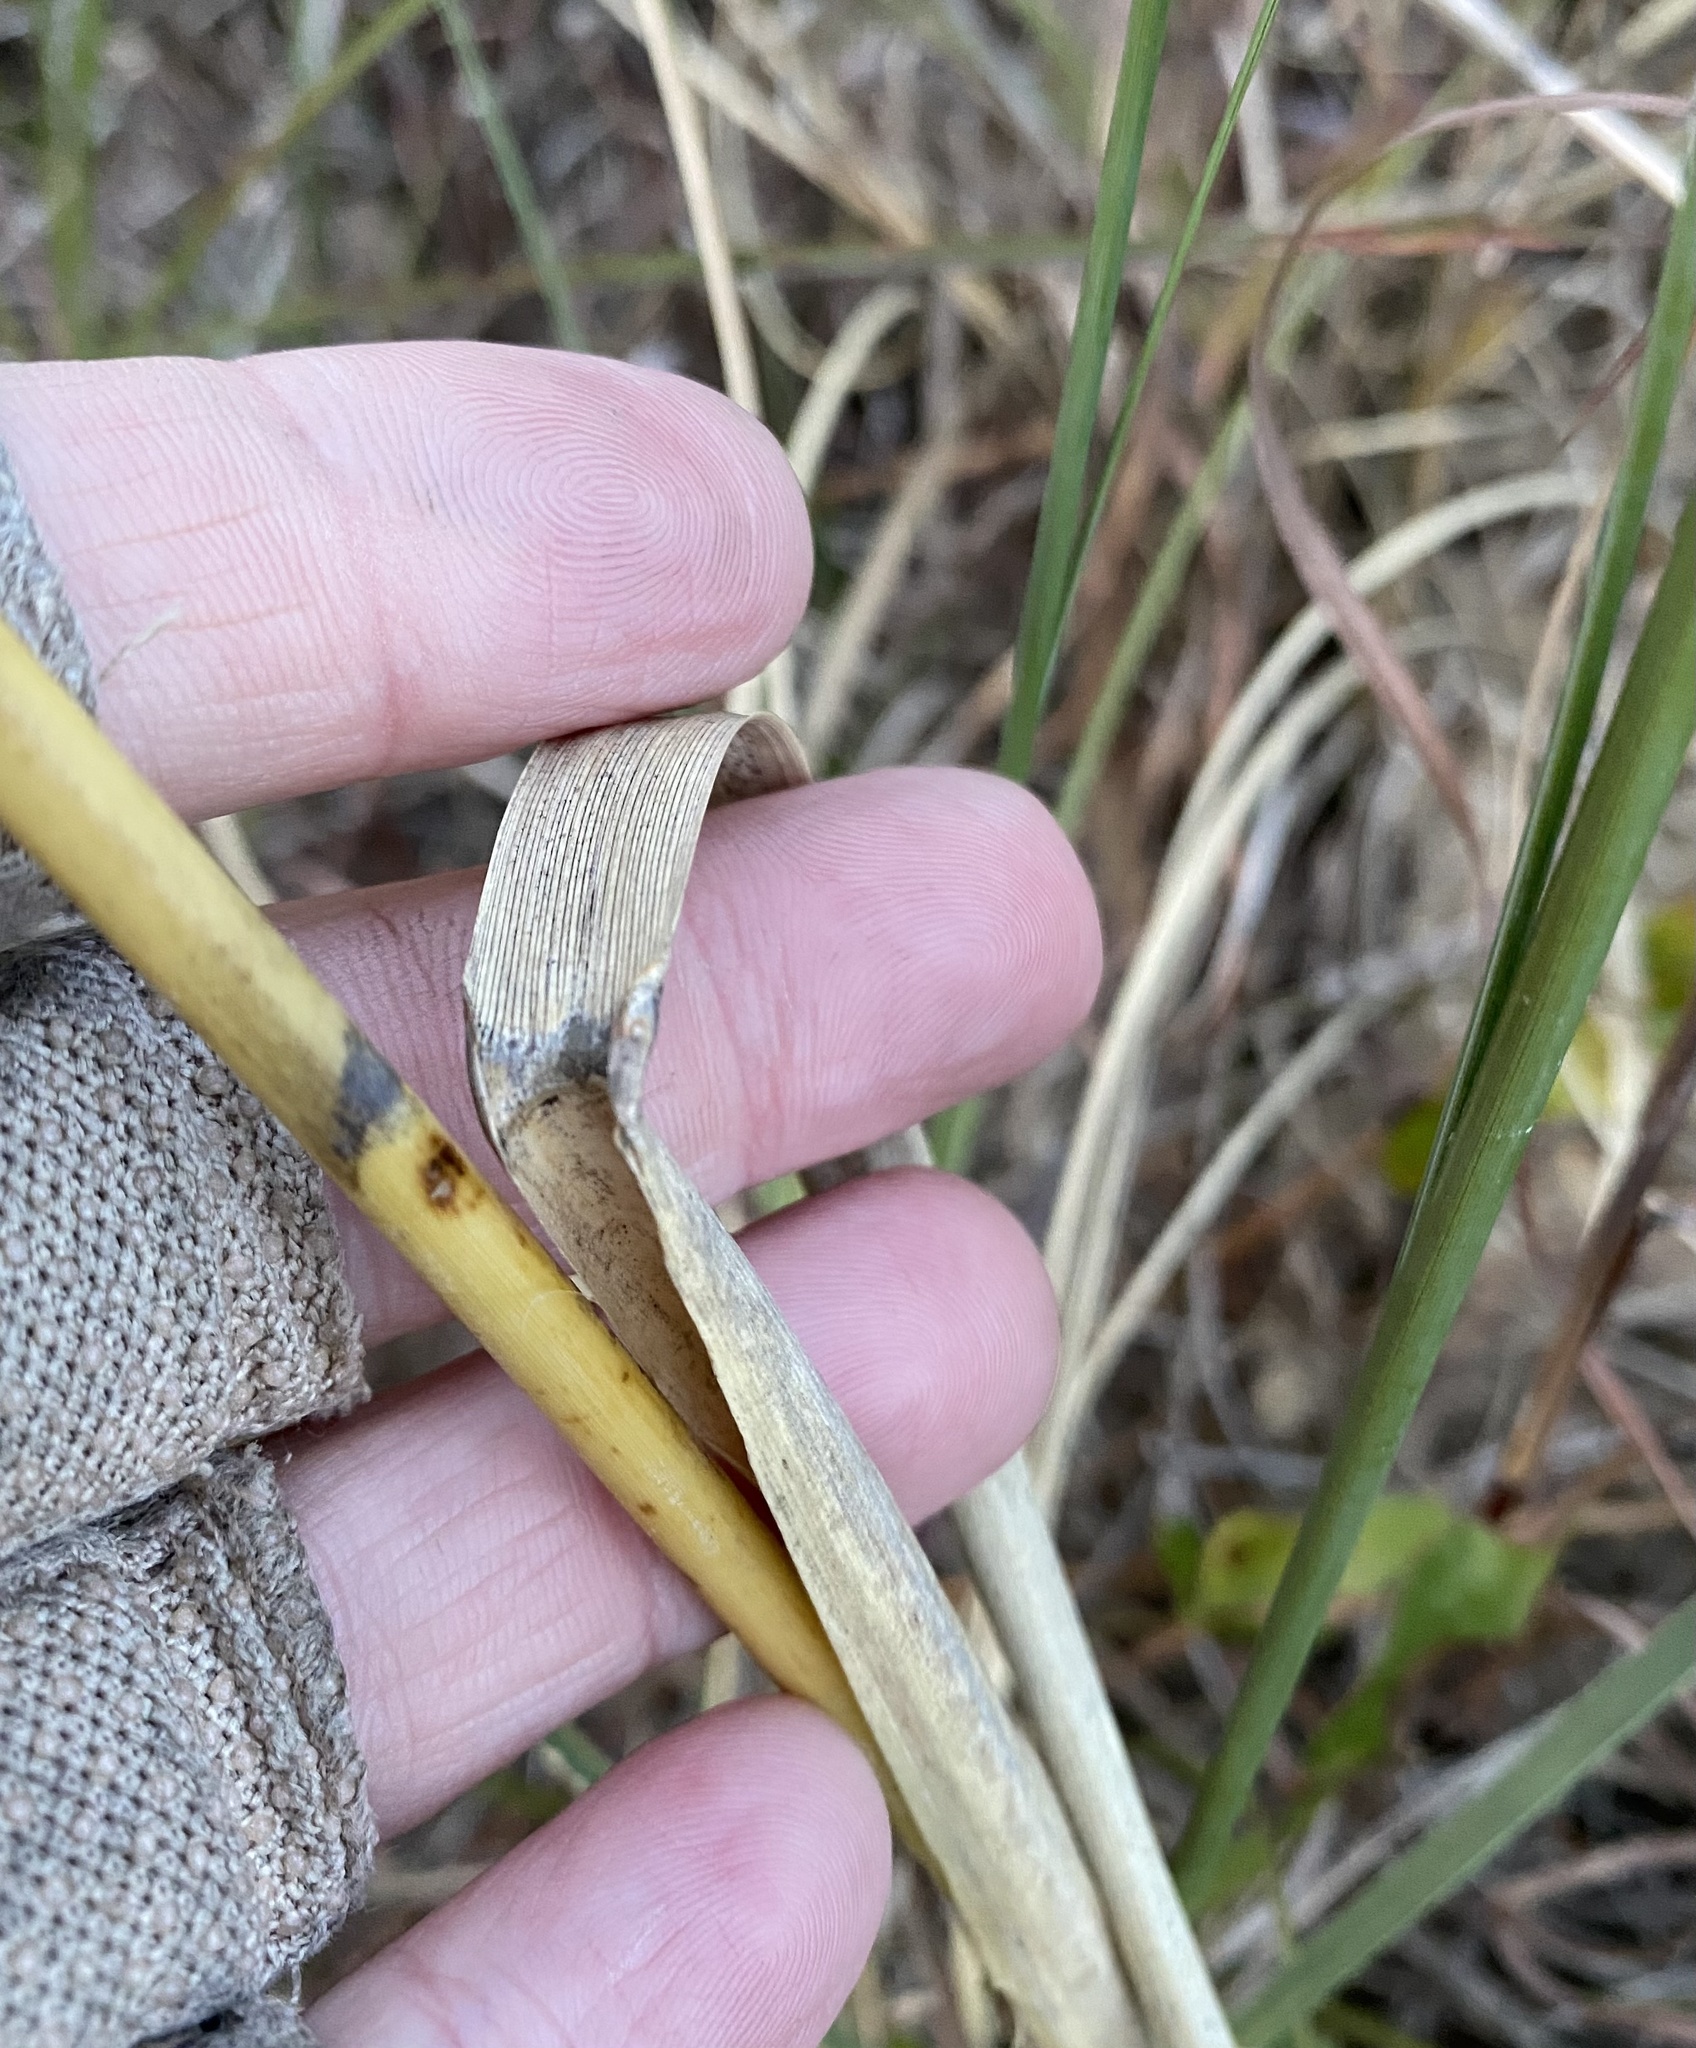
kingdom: Plantae
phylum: Tracheophyta
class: Liliopsida
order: Poales
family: Poaceae
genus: Uniola
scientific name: Uniola paniculata
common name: Seaside-oats
